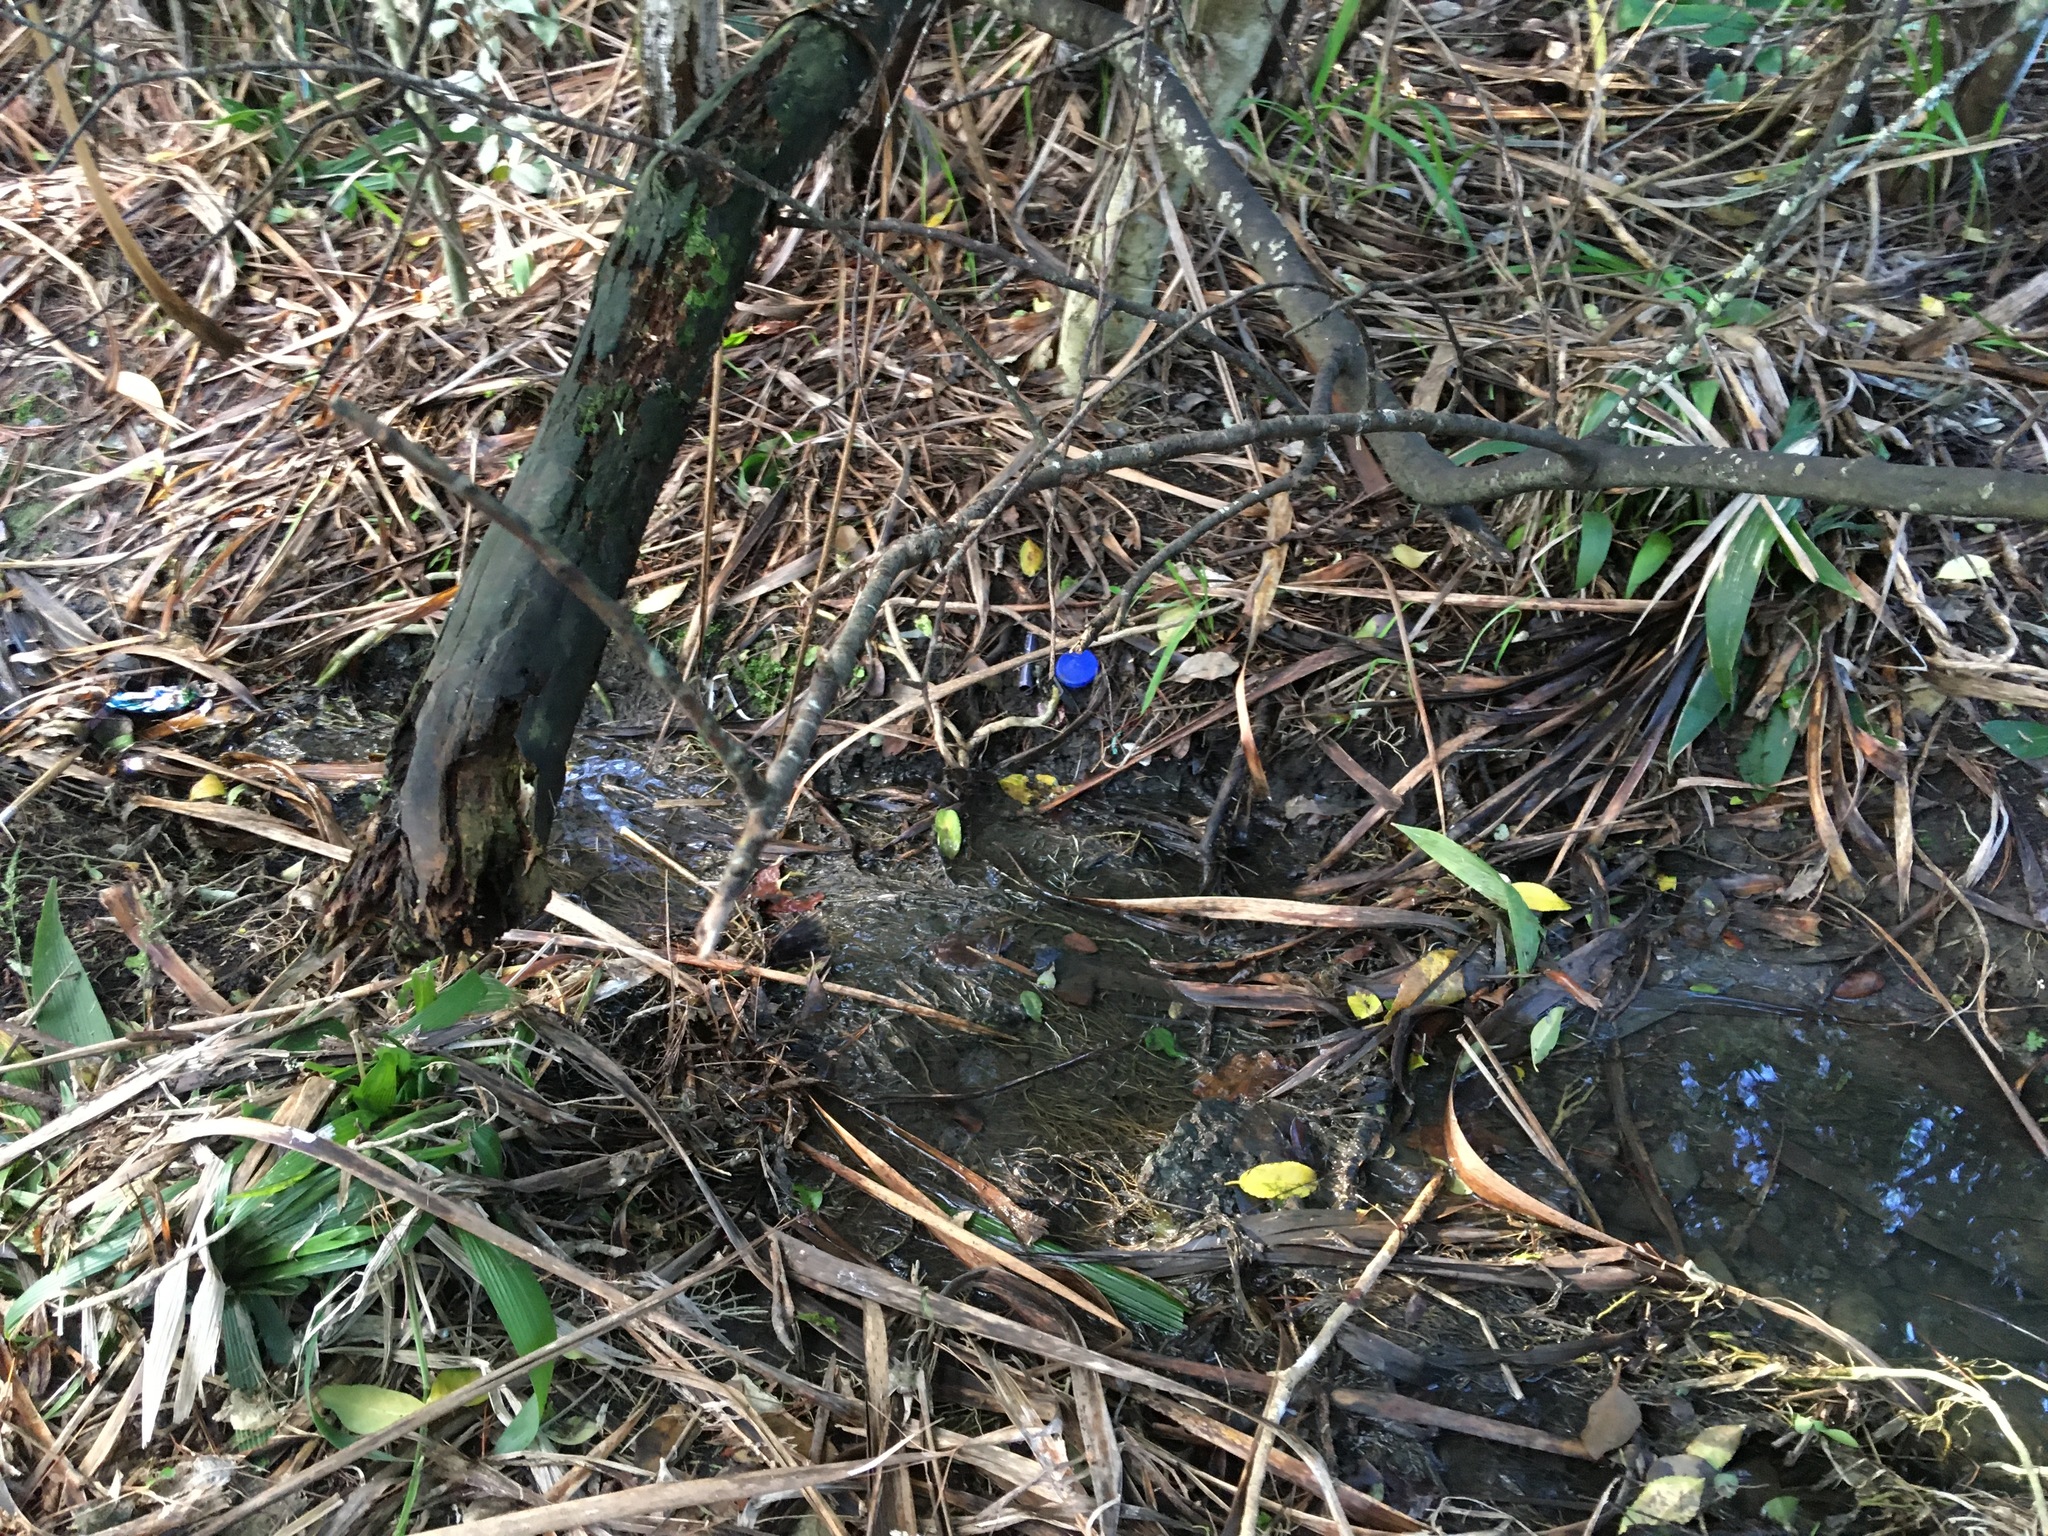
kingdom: Plantae
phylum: Tracheophyta
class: Magnoliopsida
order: Ericales
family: Primulaceae
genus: Myrsine
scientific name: Myrsine australis
